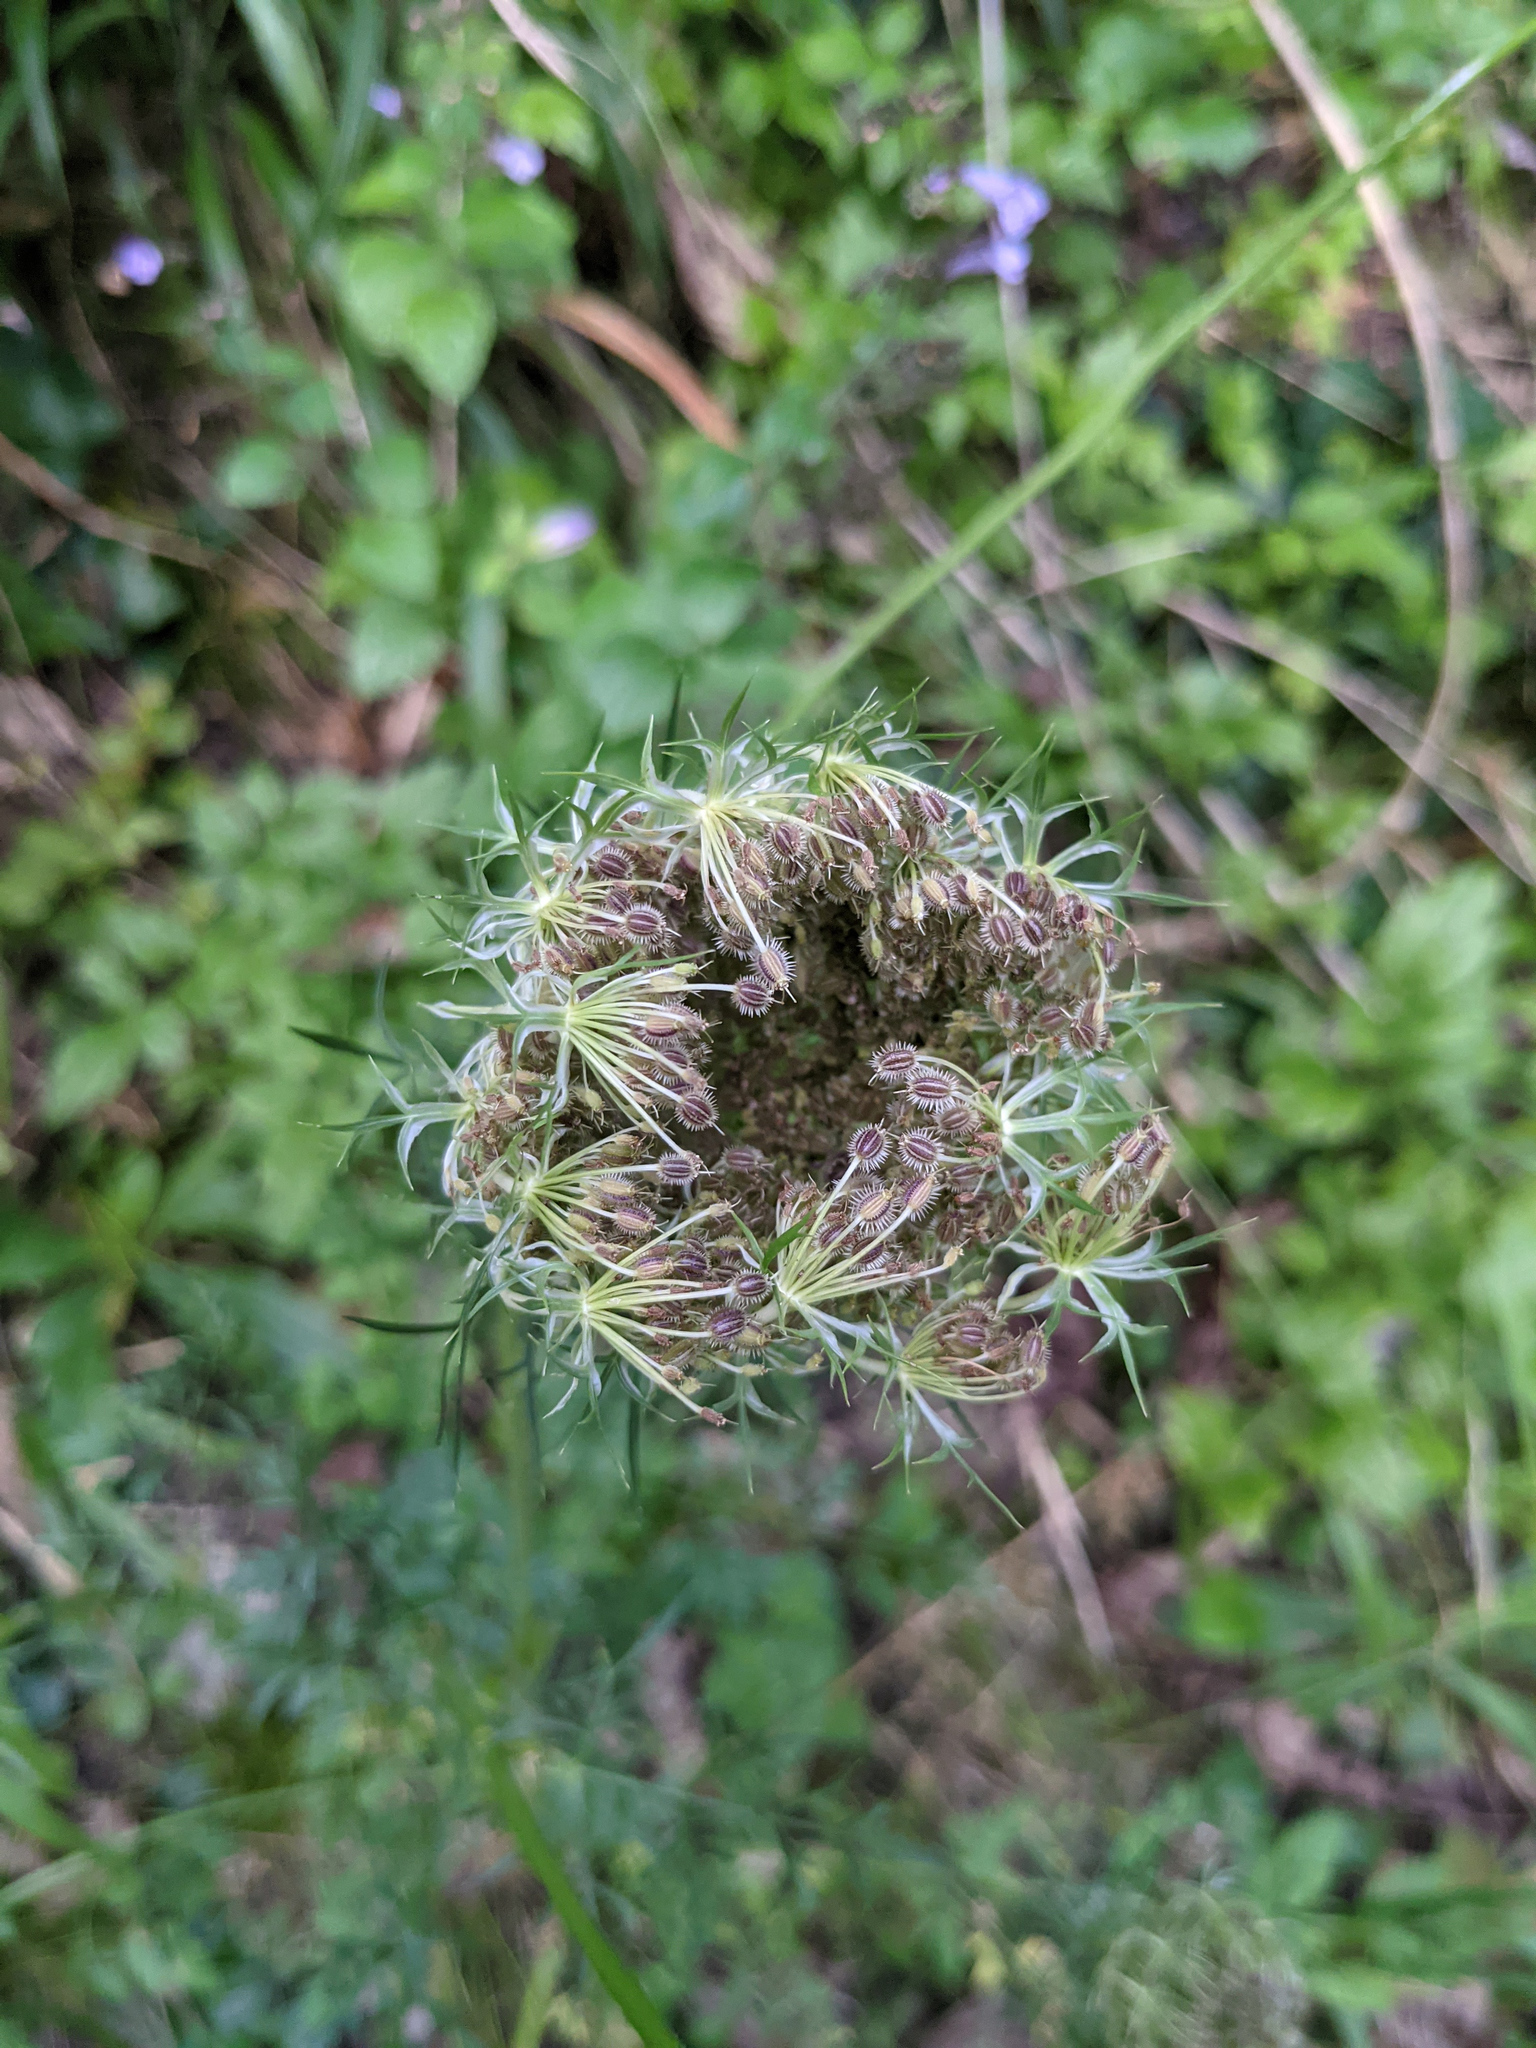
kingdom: Plantae
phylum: Tracheophyta
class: Magnoliopsida
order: Apiales
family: Apiaceae
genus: Daucus
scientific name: Daucus carota
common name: Wild carrot
